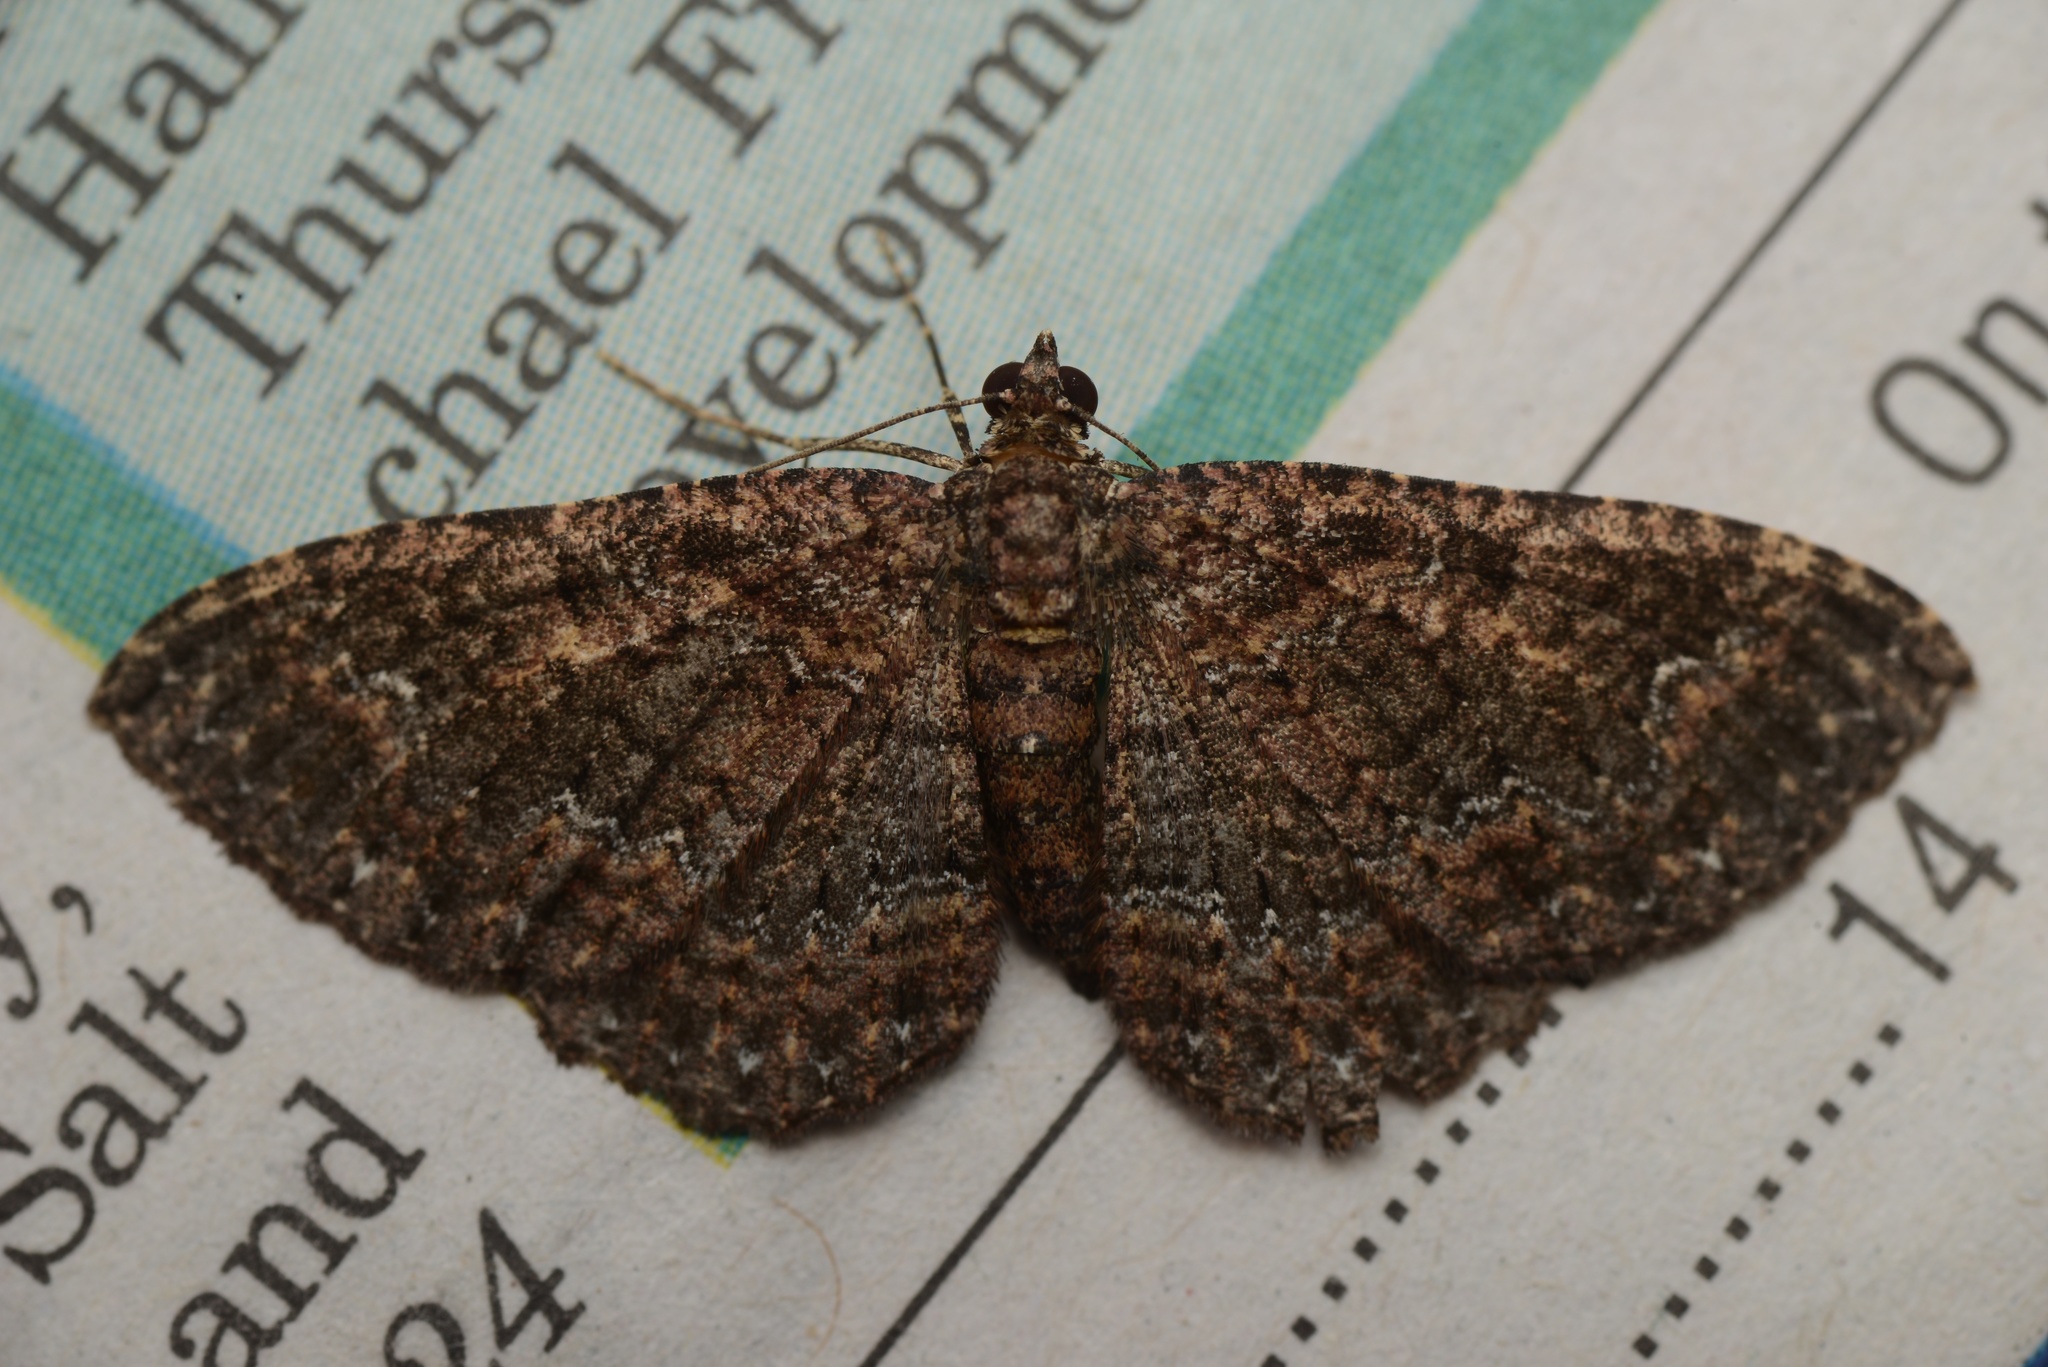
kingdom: Animalia
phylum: Arthropoda
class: Insecta
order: Lepidoptera
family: Geometridae
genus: Disclisioprocta
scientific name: Disclisioprocta stellata
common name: Somber carpet
